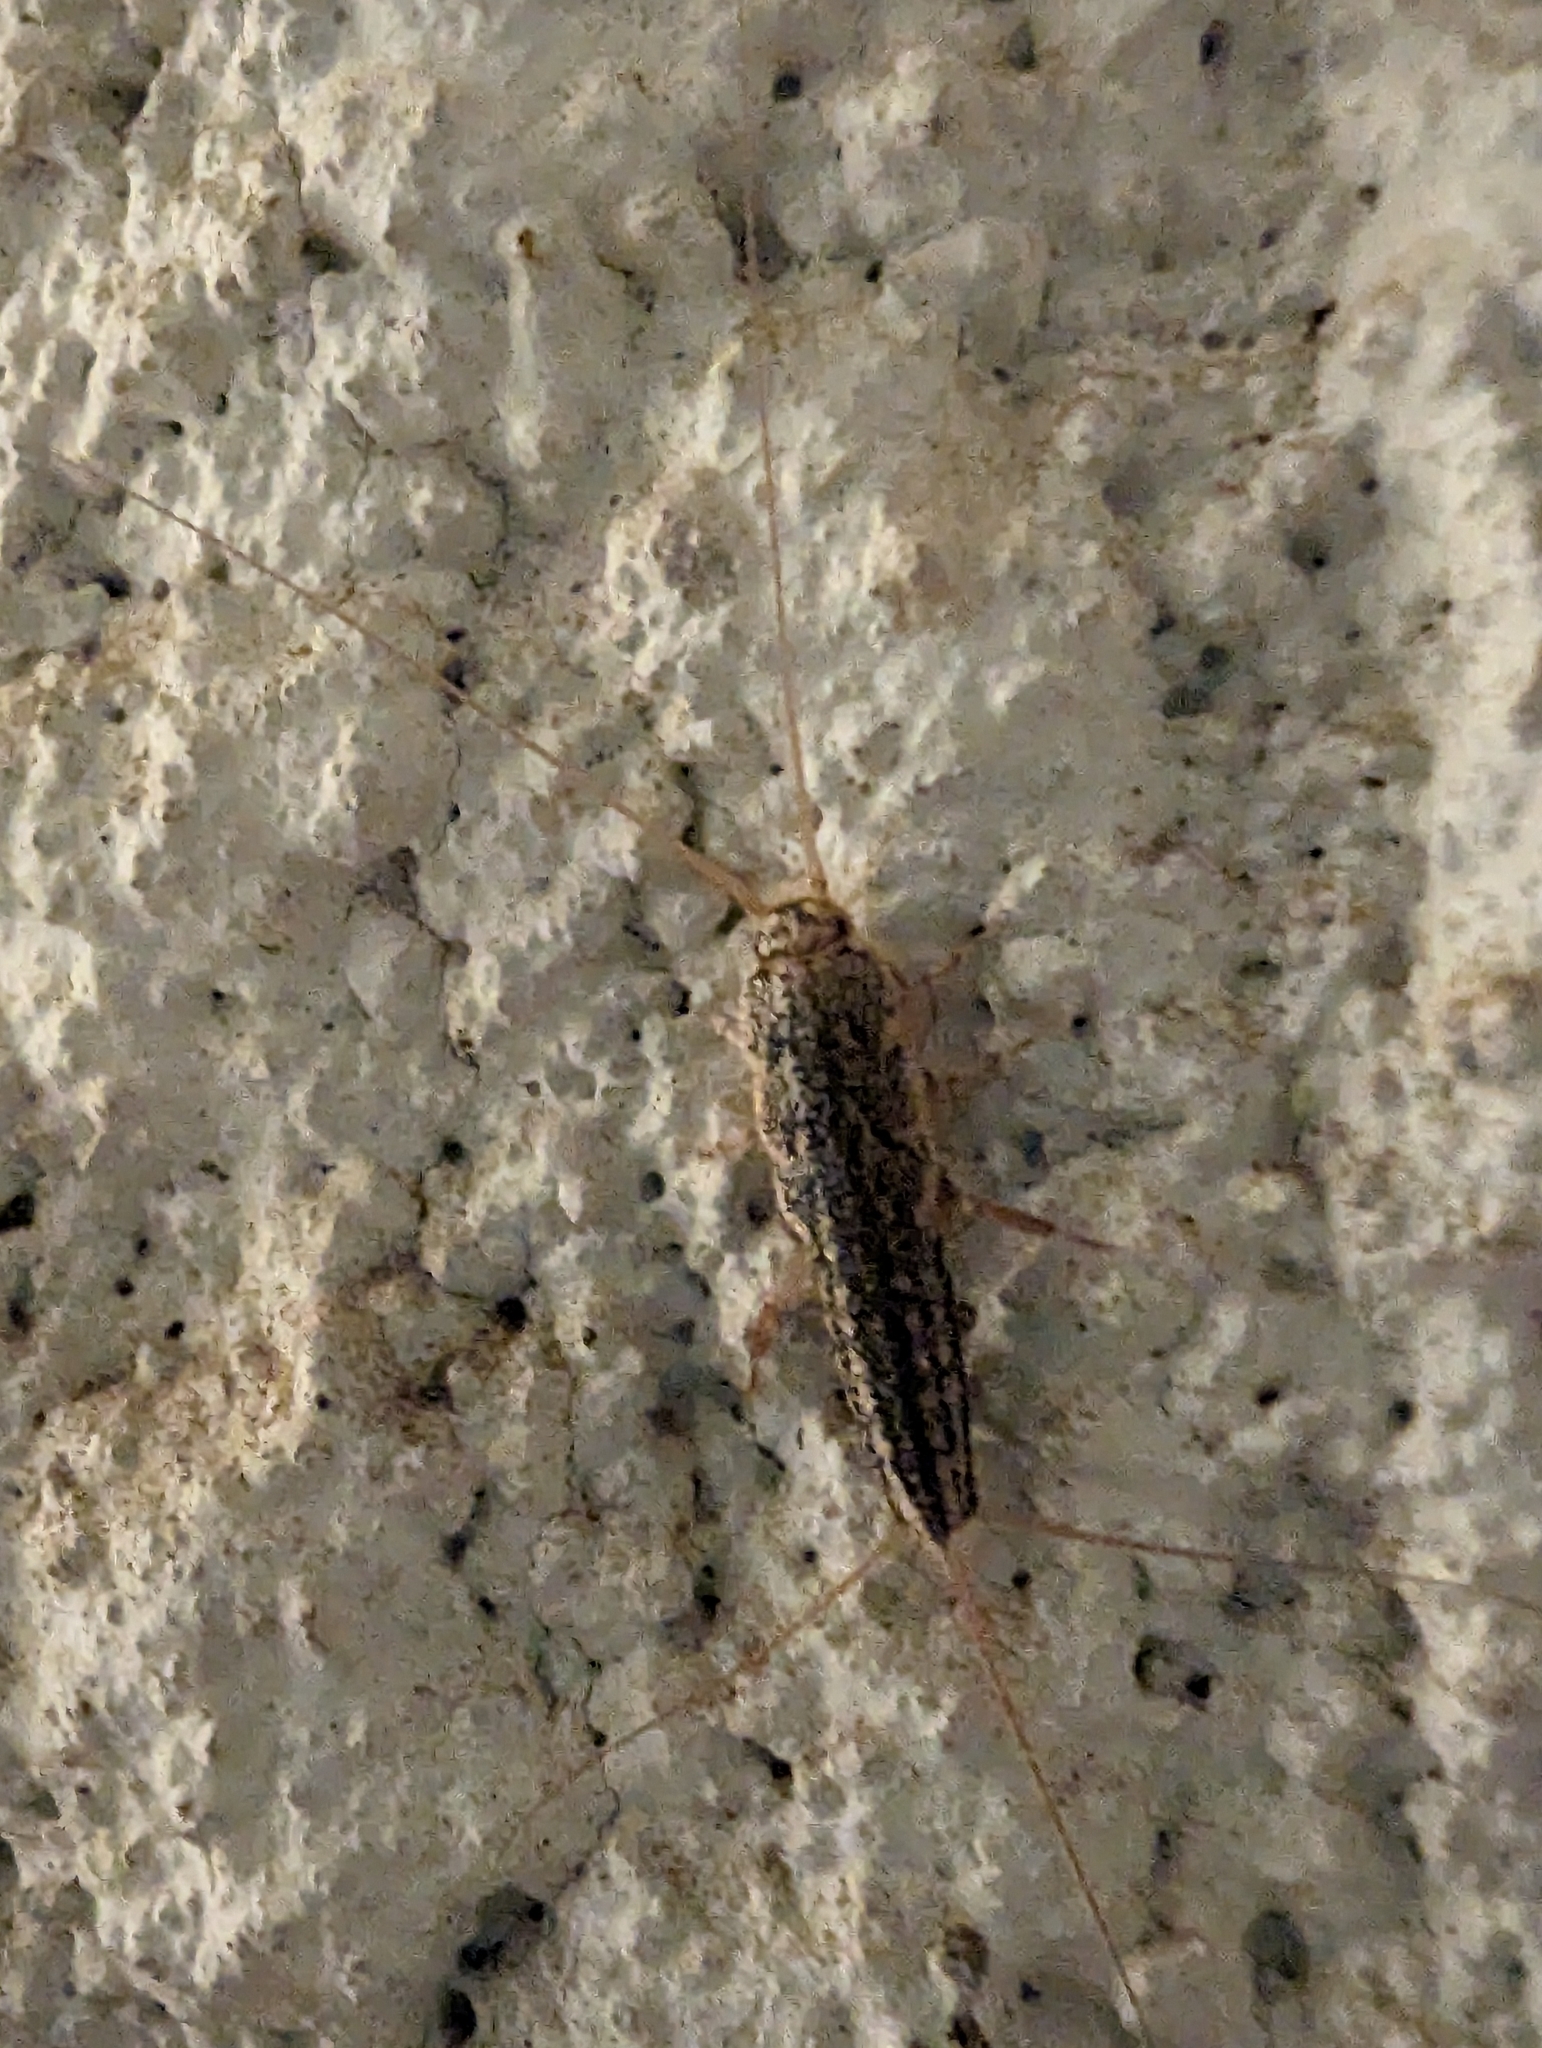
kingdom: Animalia
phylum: Arthropoda
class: Insecta
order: Zygentoma
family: Lepismatidae
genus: Ctenolepisma
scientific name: Ctenolepisma lineata
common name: Four-lined silverfish
